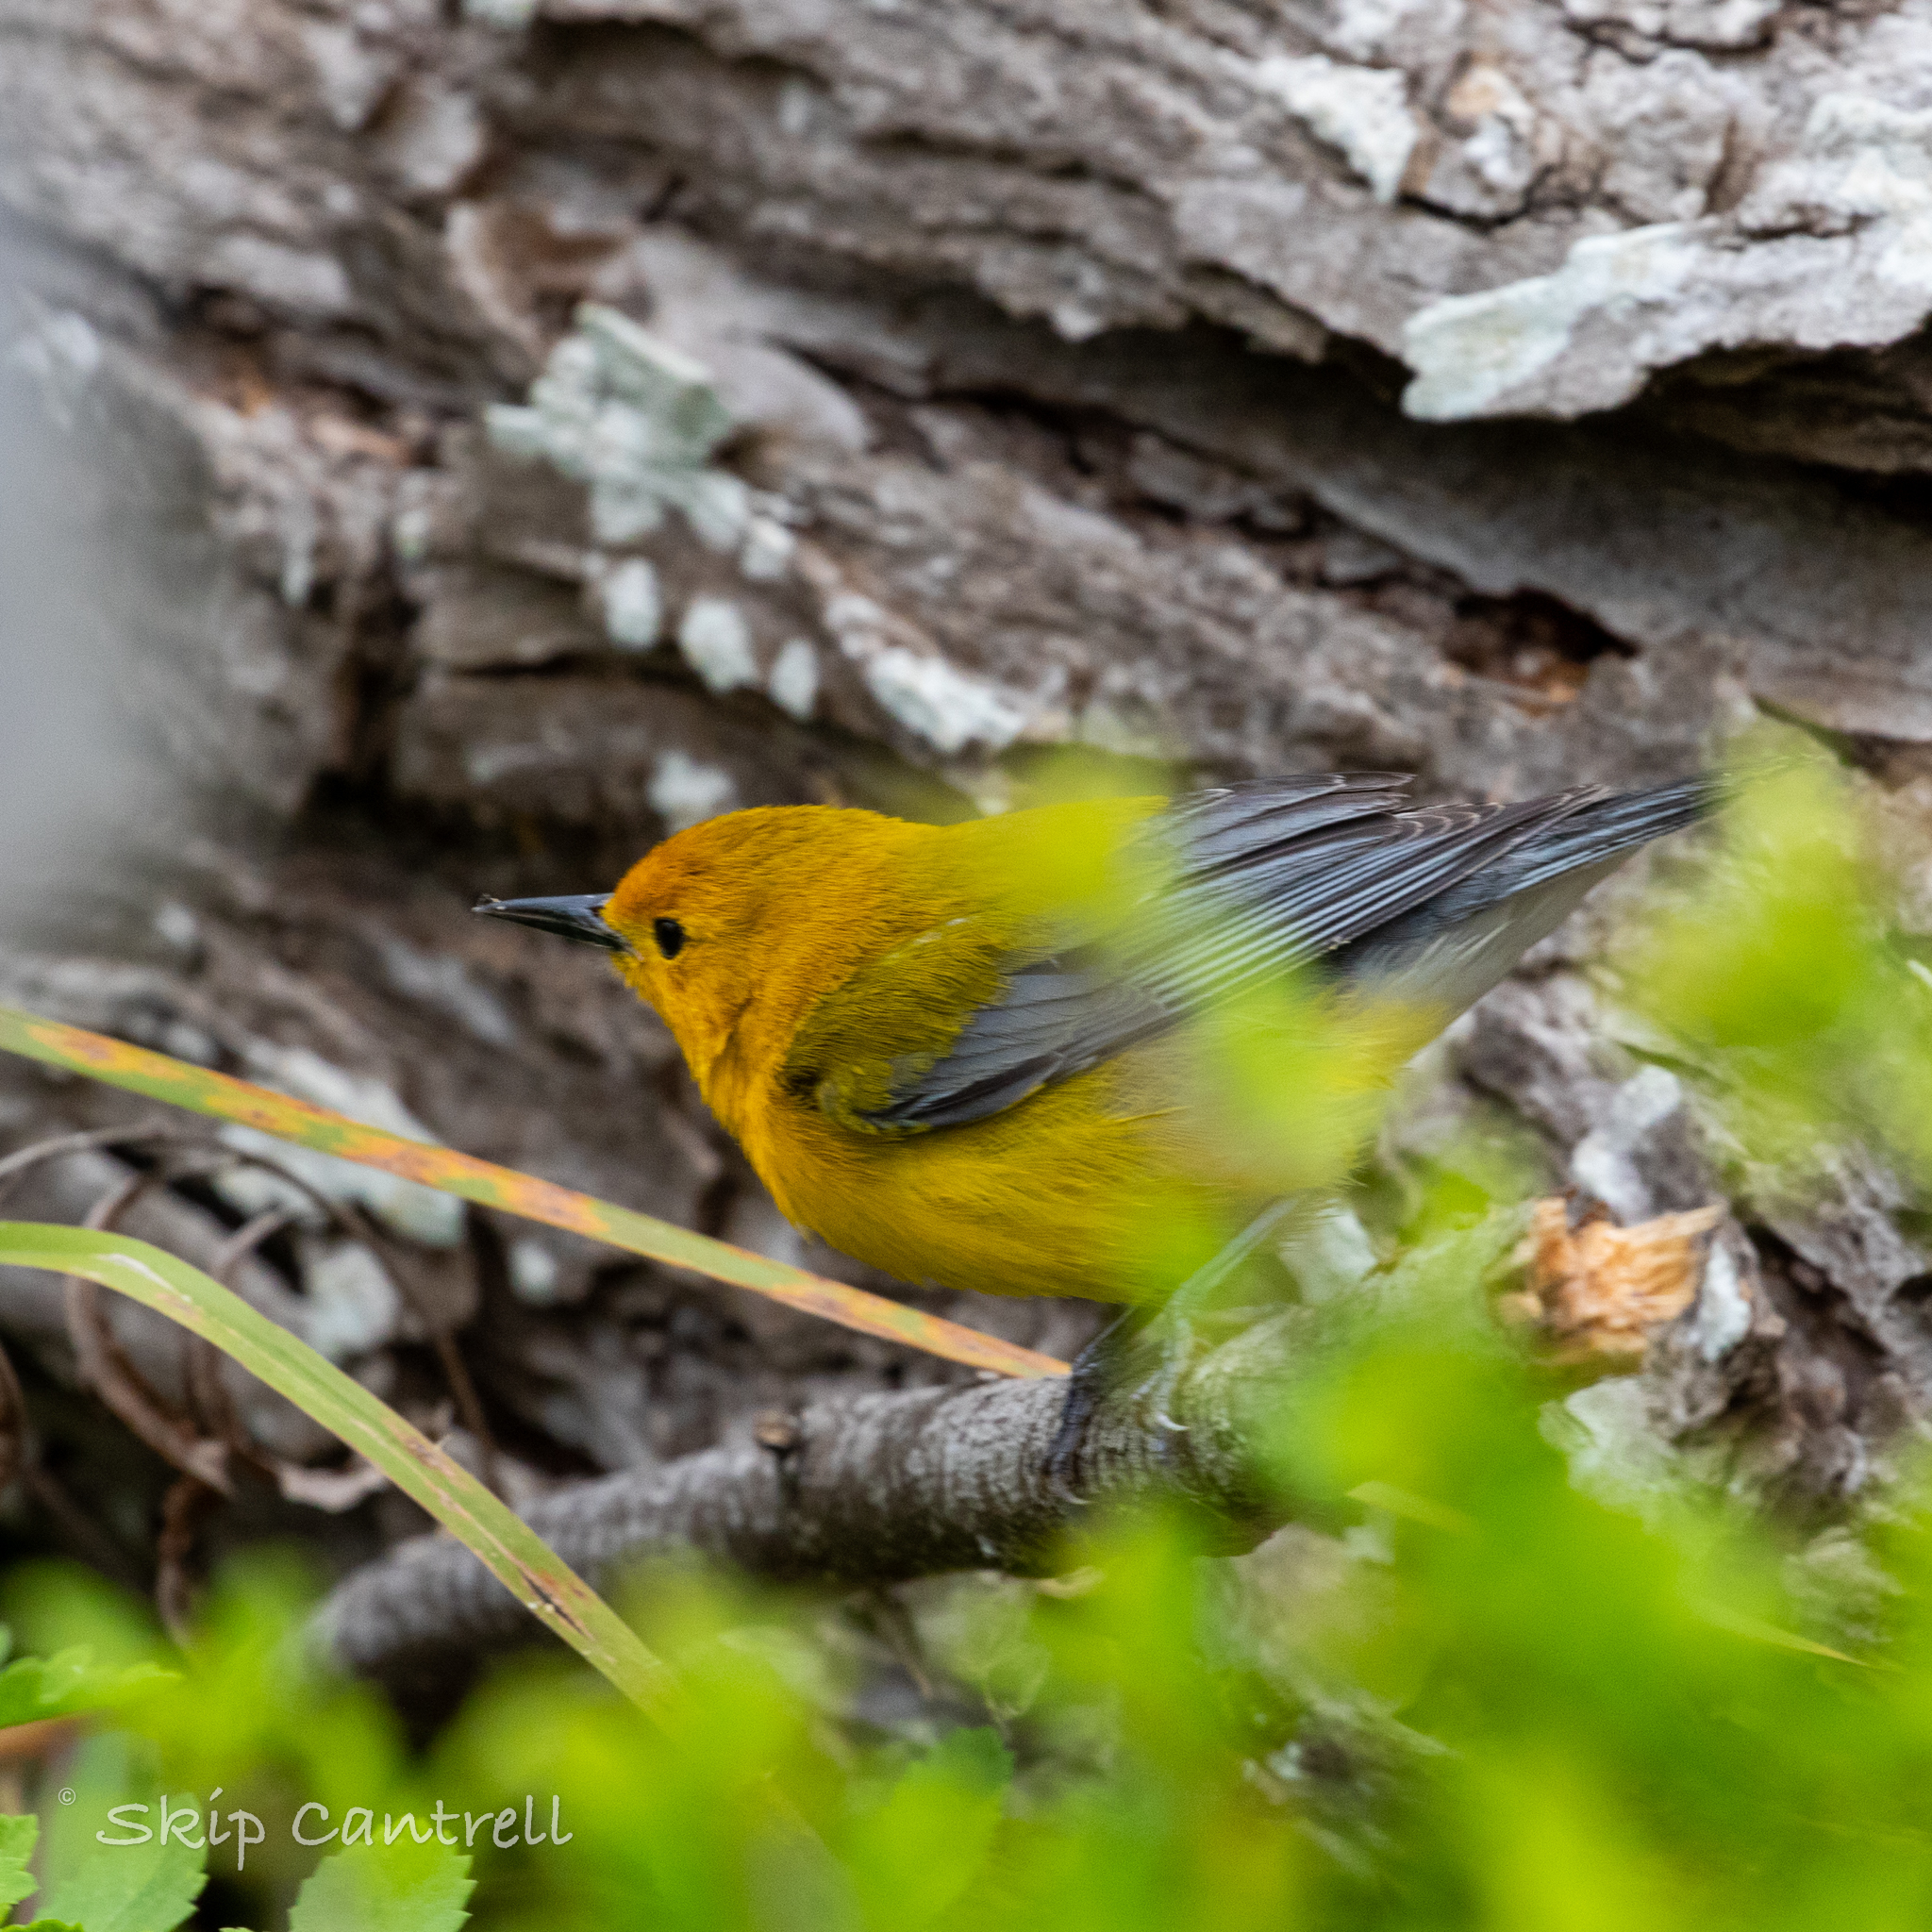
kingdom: Animalia
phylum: Chordata
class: Aves
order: Passeriformes
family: Parulidae
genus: Protonotaria
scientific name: Protonotaria citrea
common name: Prothonotary warbler
